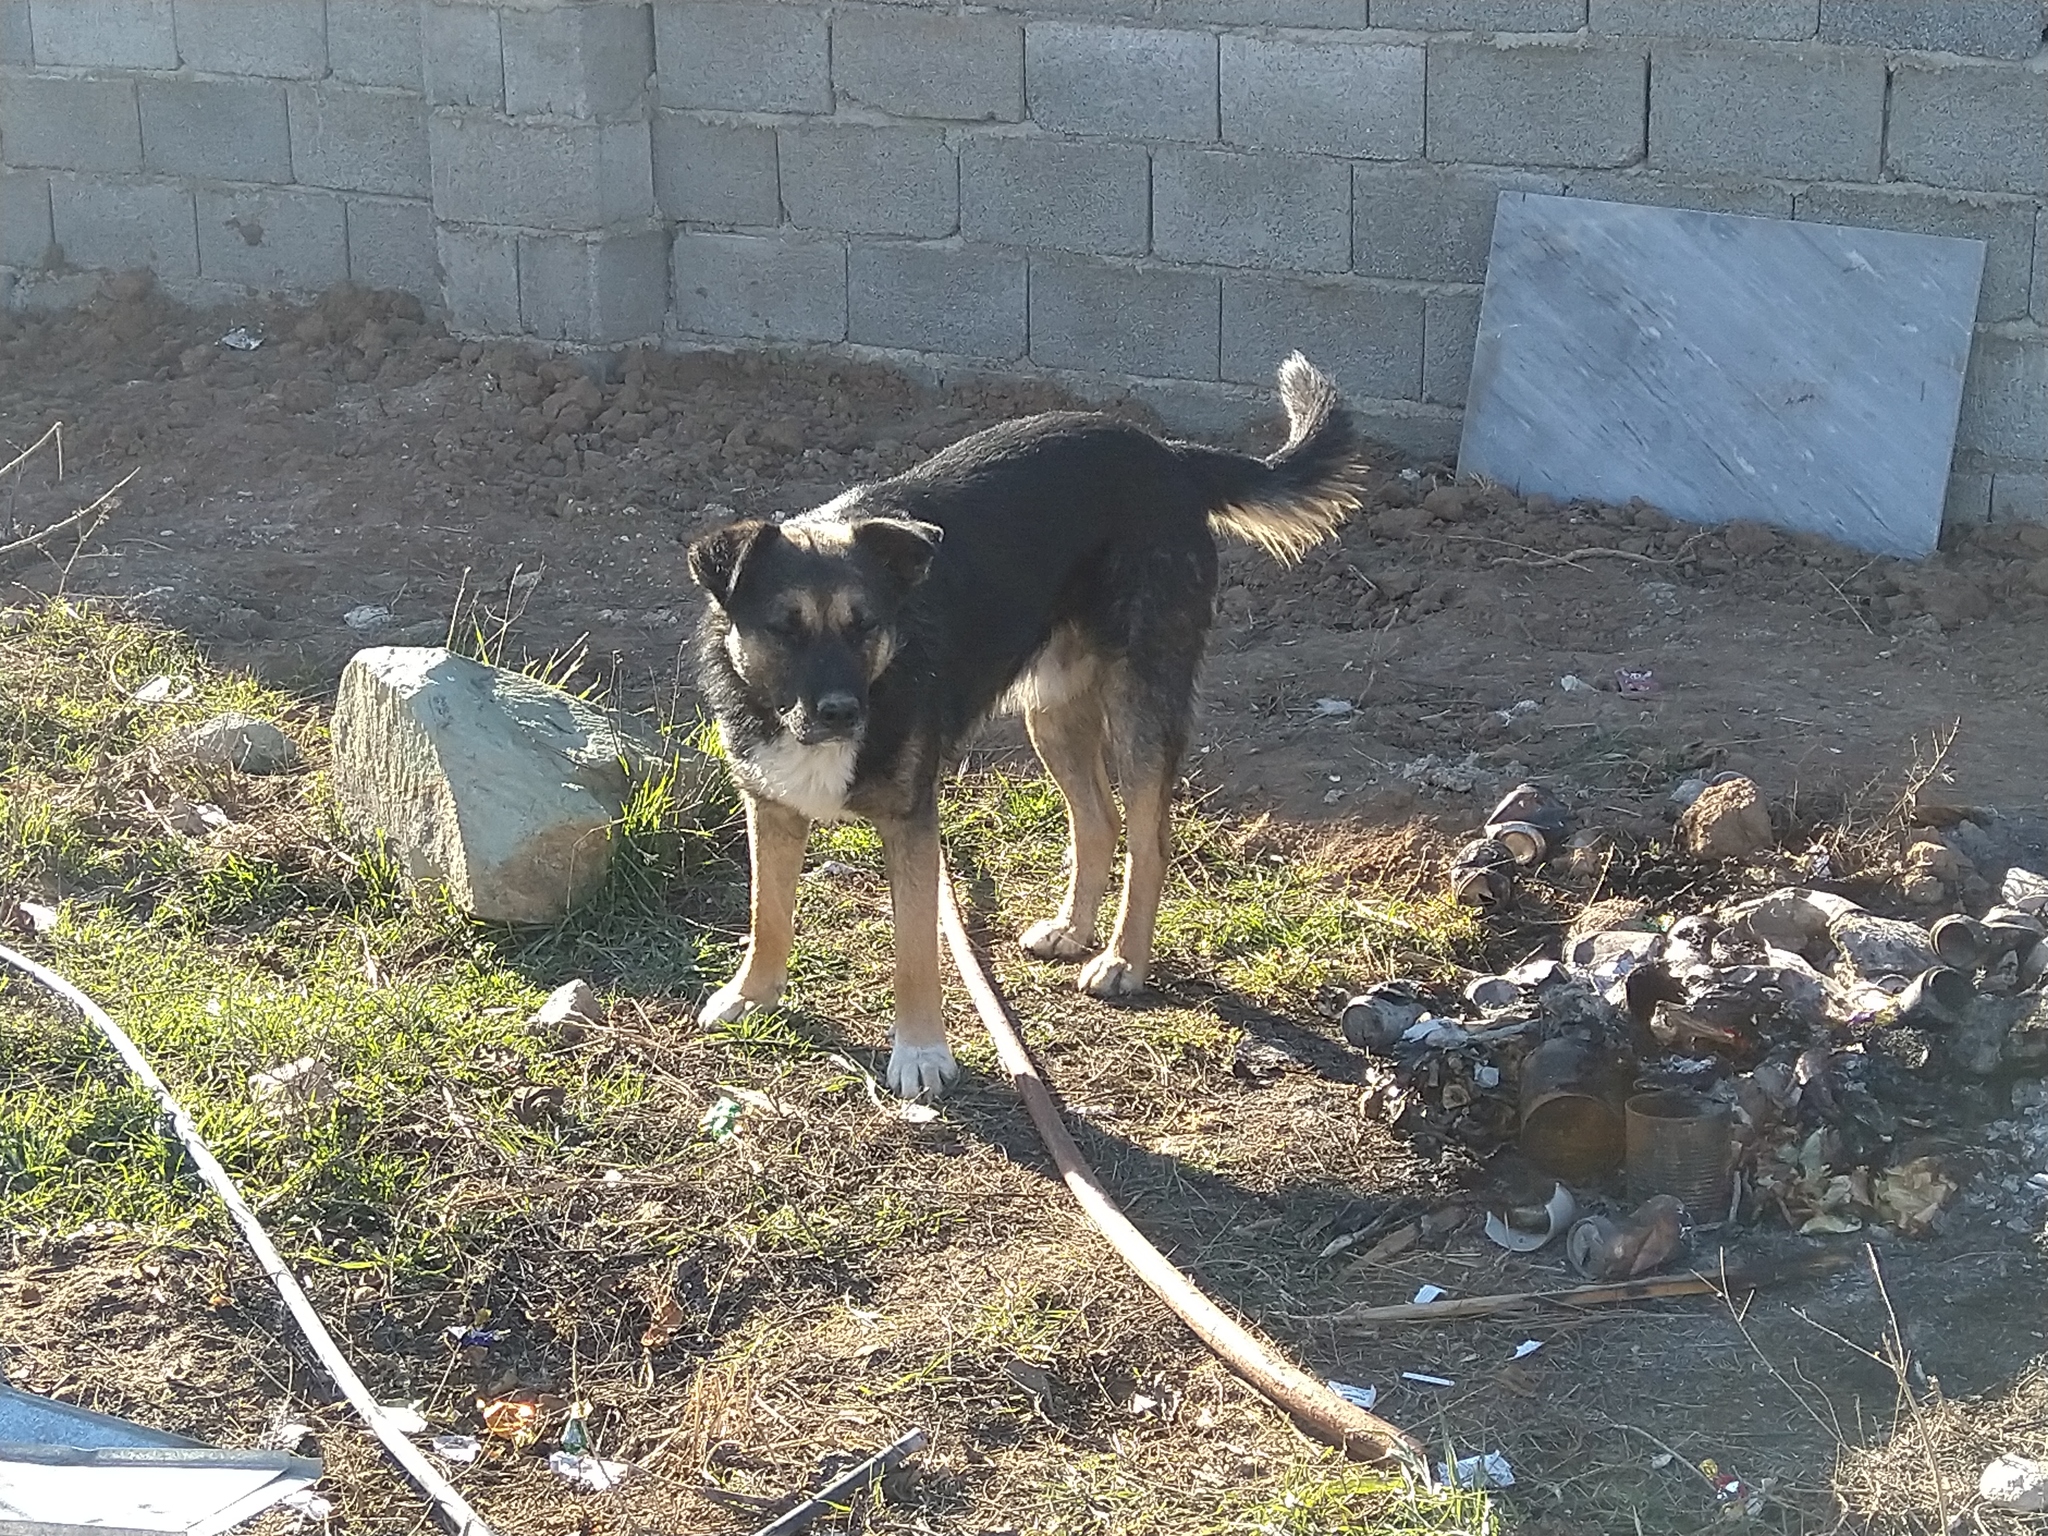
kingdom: Animalia
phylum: Chordata
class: Mammalia
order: Carnivora
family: Canidae
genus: Canis
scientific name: Canis lupus
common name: Gray wolf
